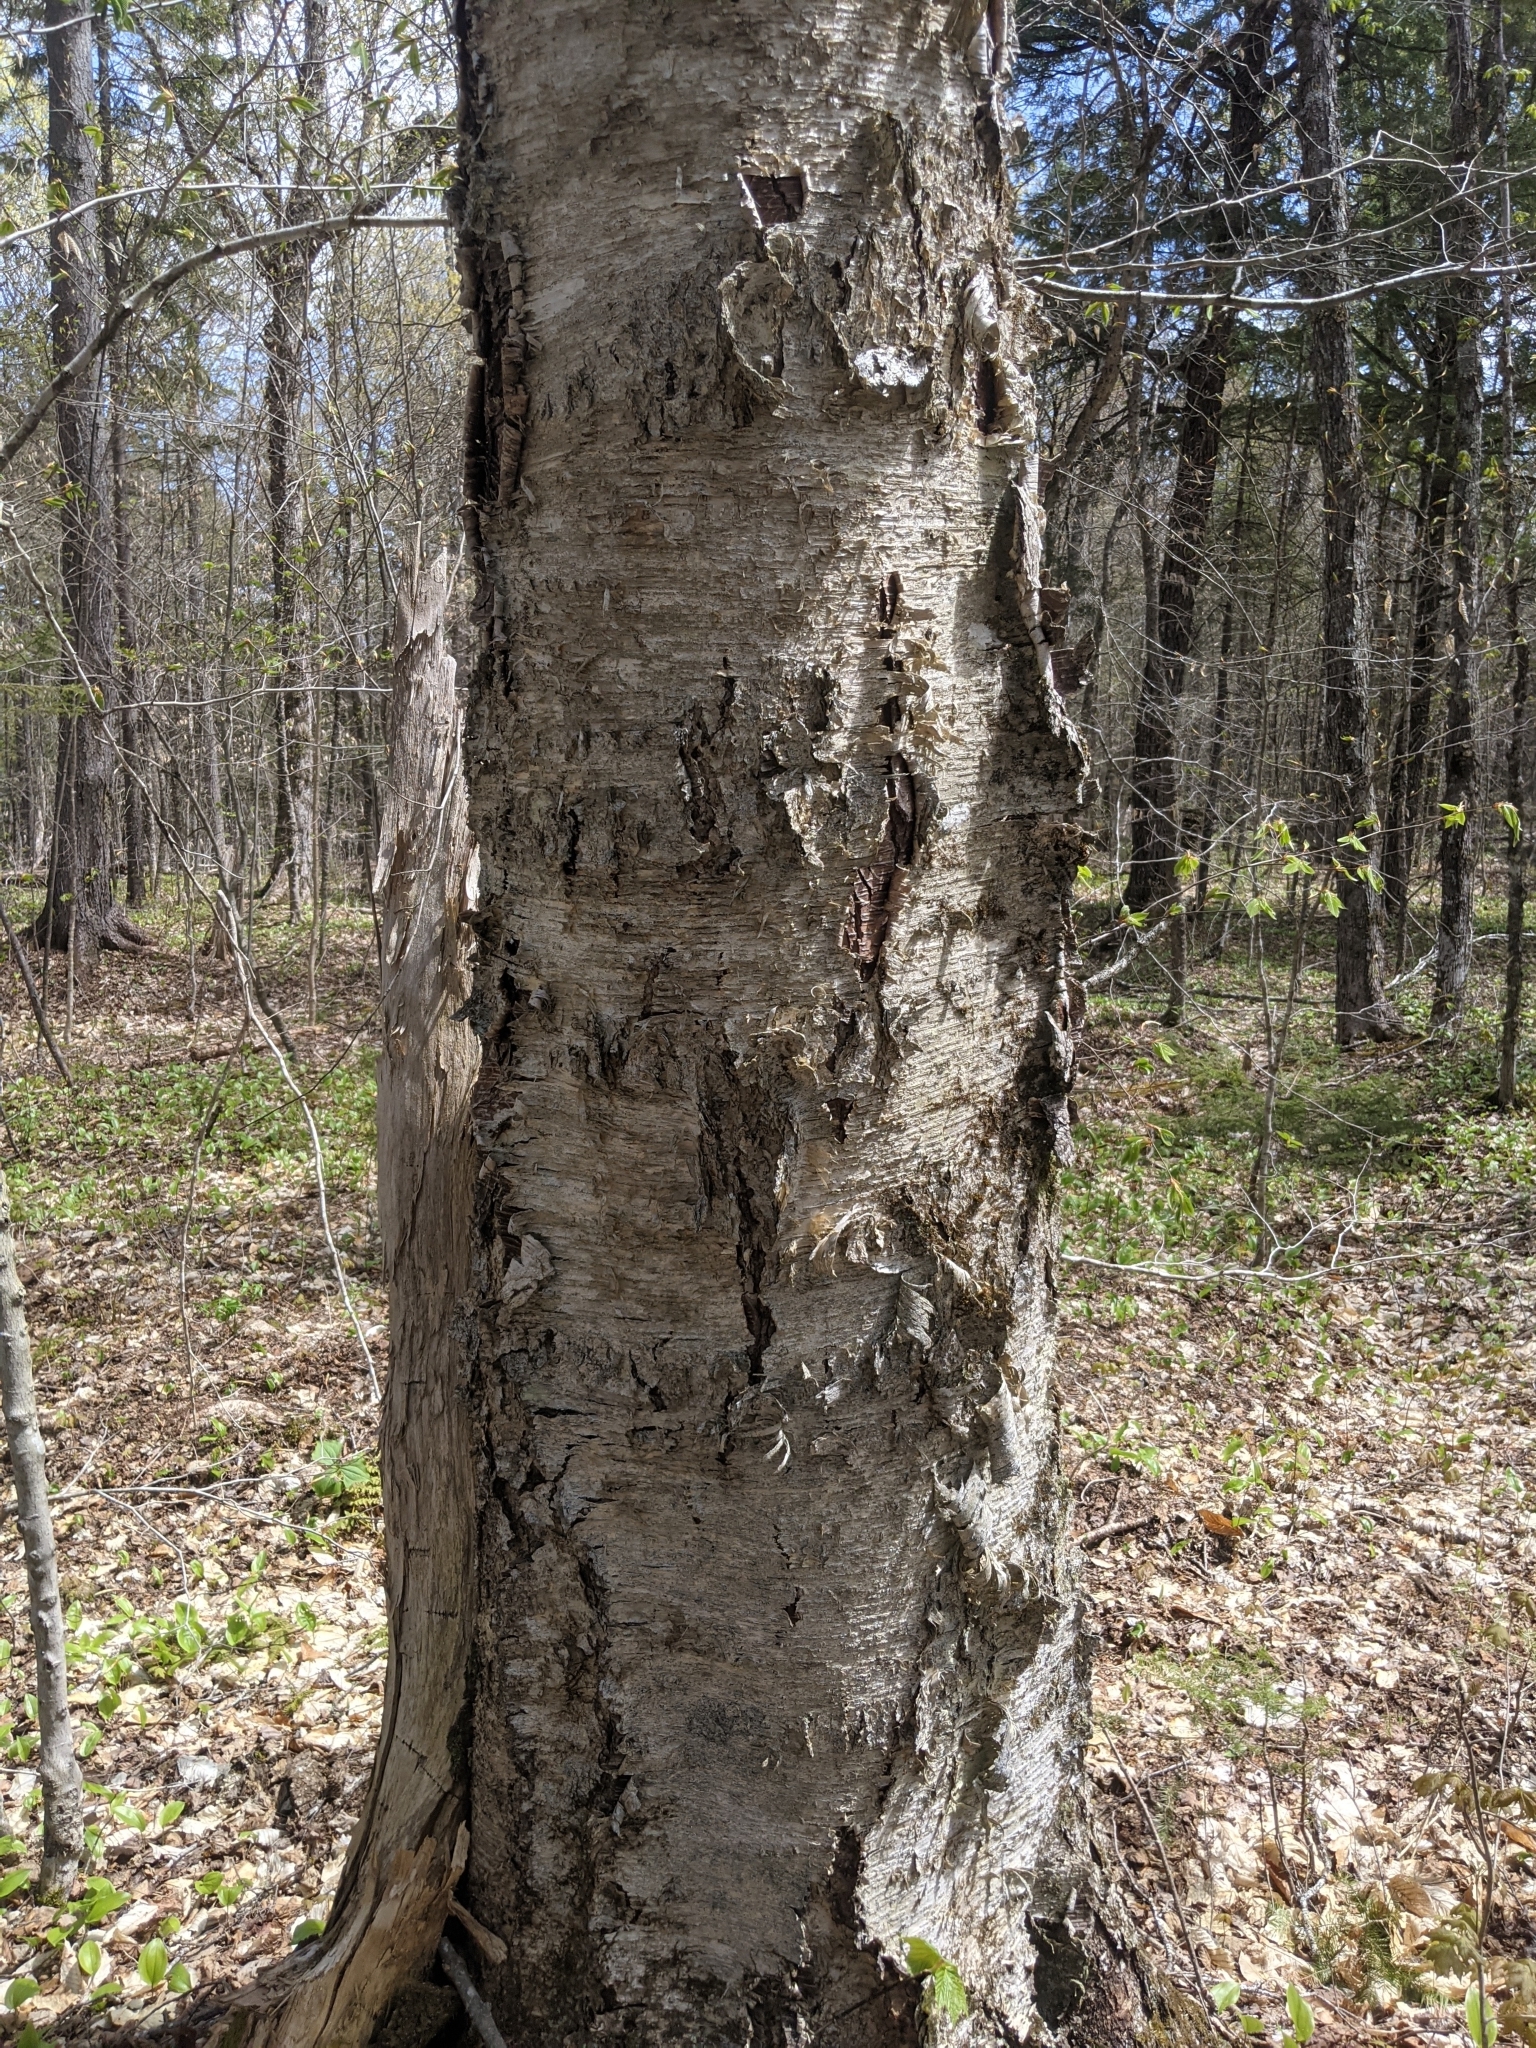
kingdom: Plantae
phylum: Tracheophyta
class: Magnoliopsida
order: Fagales
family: Betulaceae
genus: Betula
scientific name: Betula alleghaniensis
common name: Yellow birch
